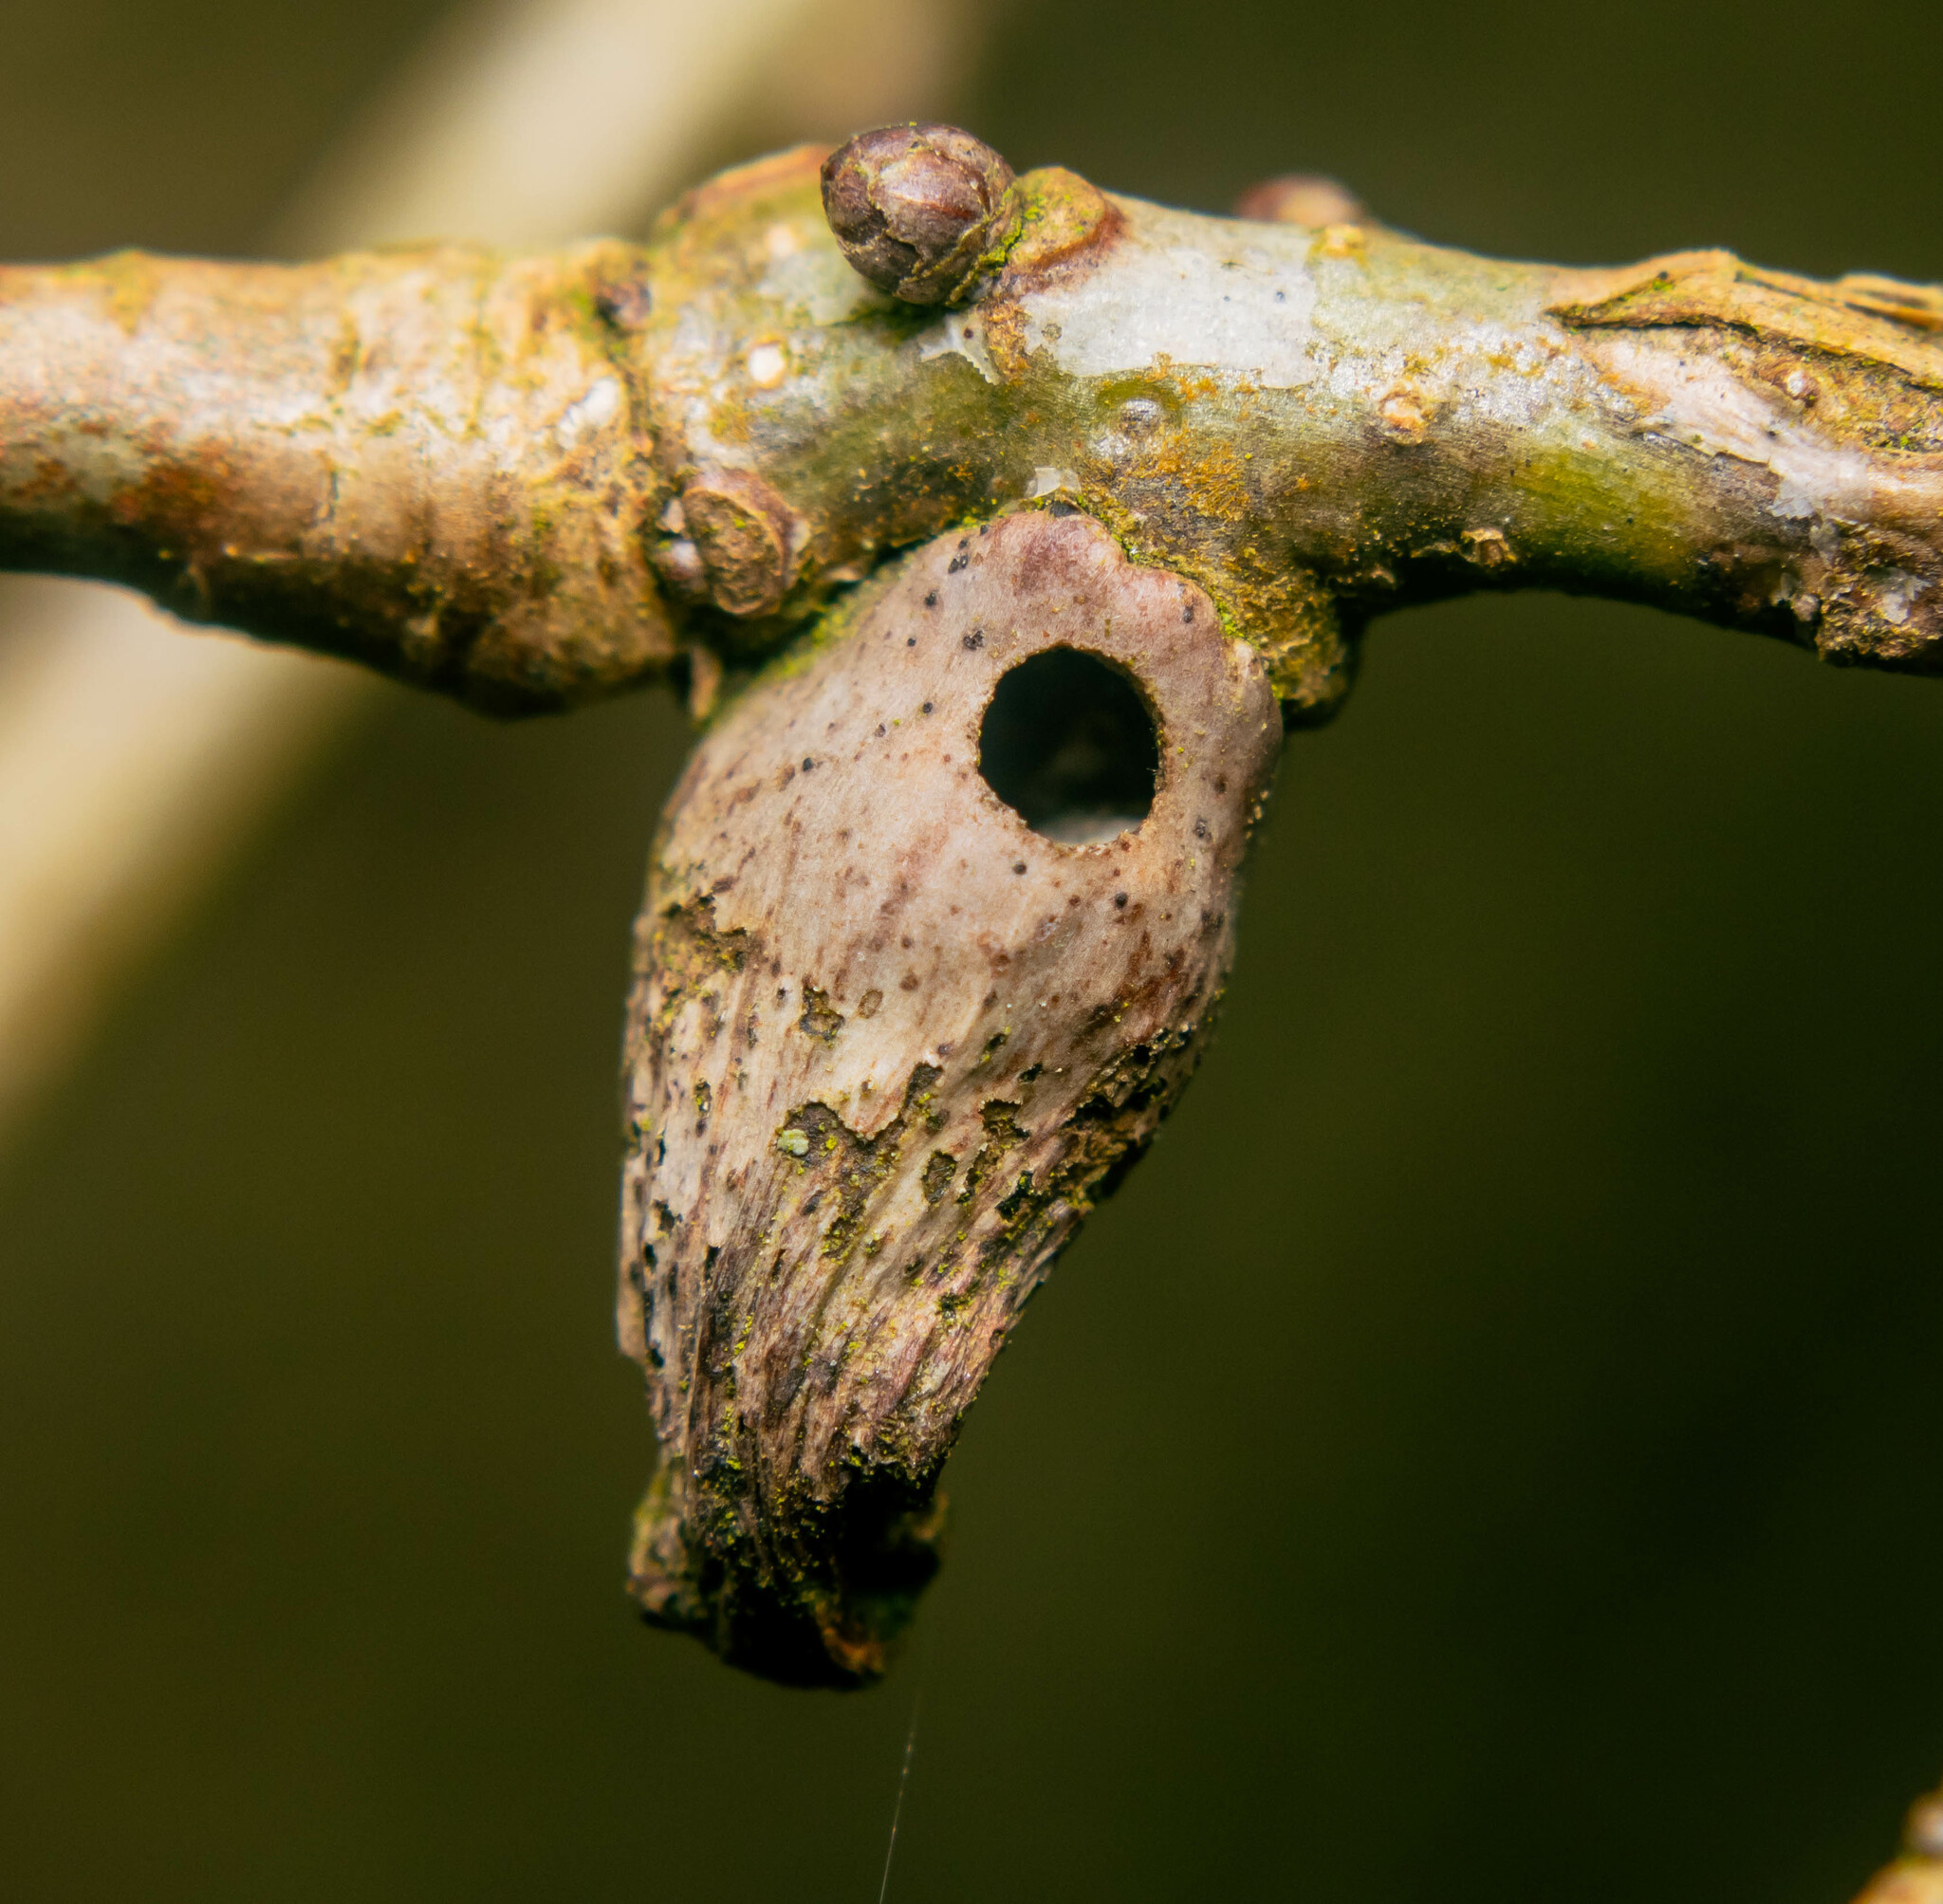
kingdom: Animalia
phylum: Arthropoda
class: Insecta
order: Hymenoptera
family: Cynipidae
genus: Andricus
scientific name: Andricus aries
